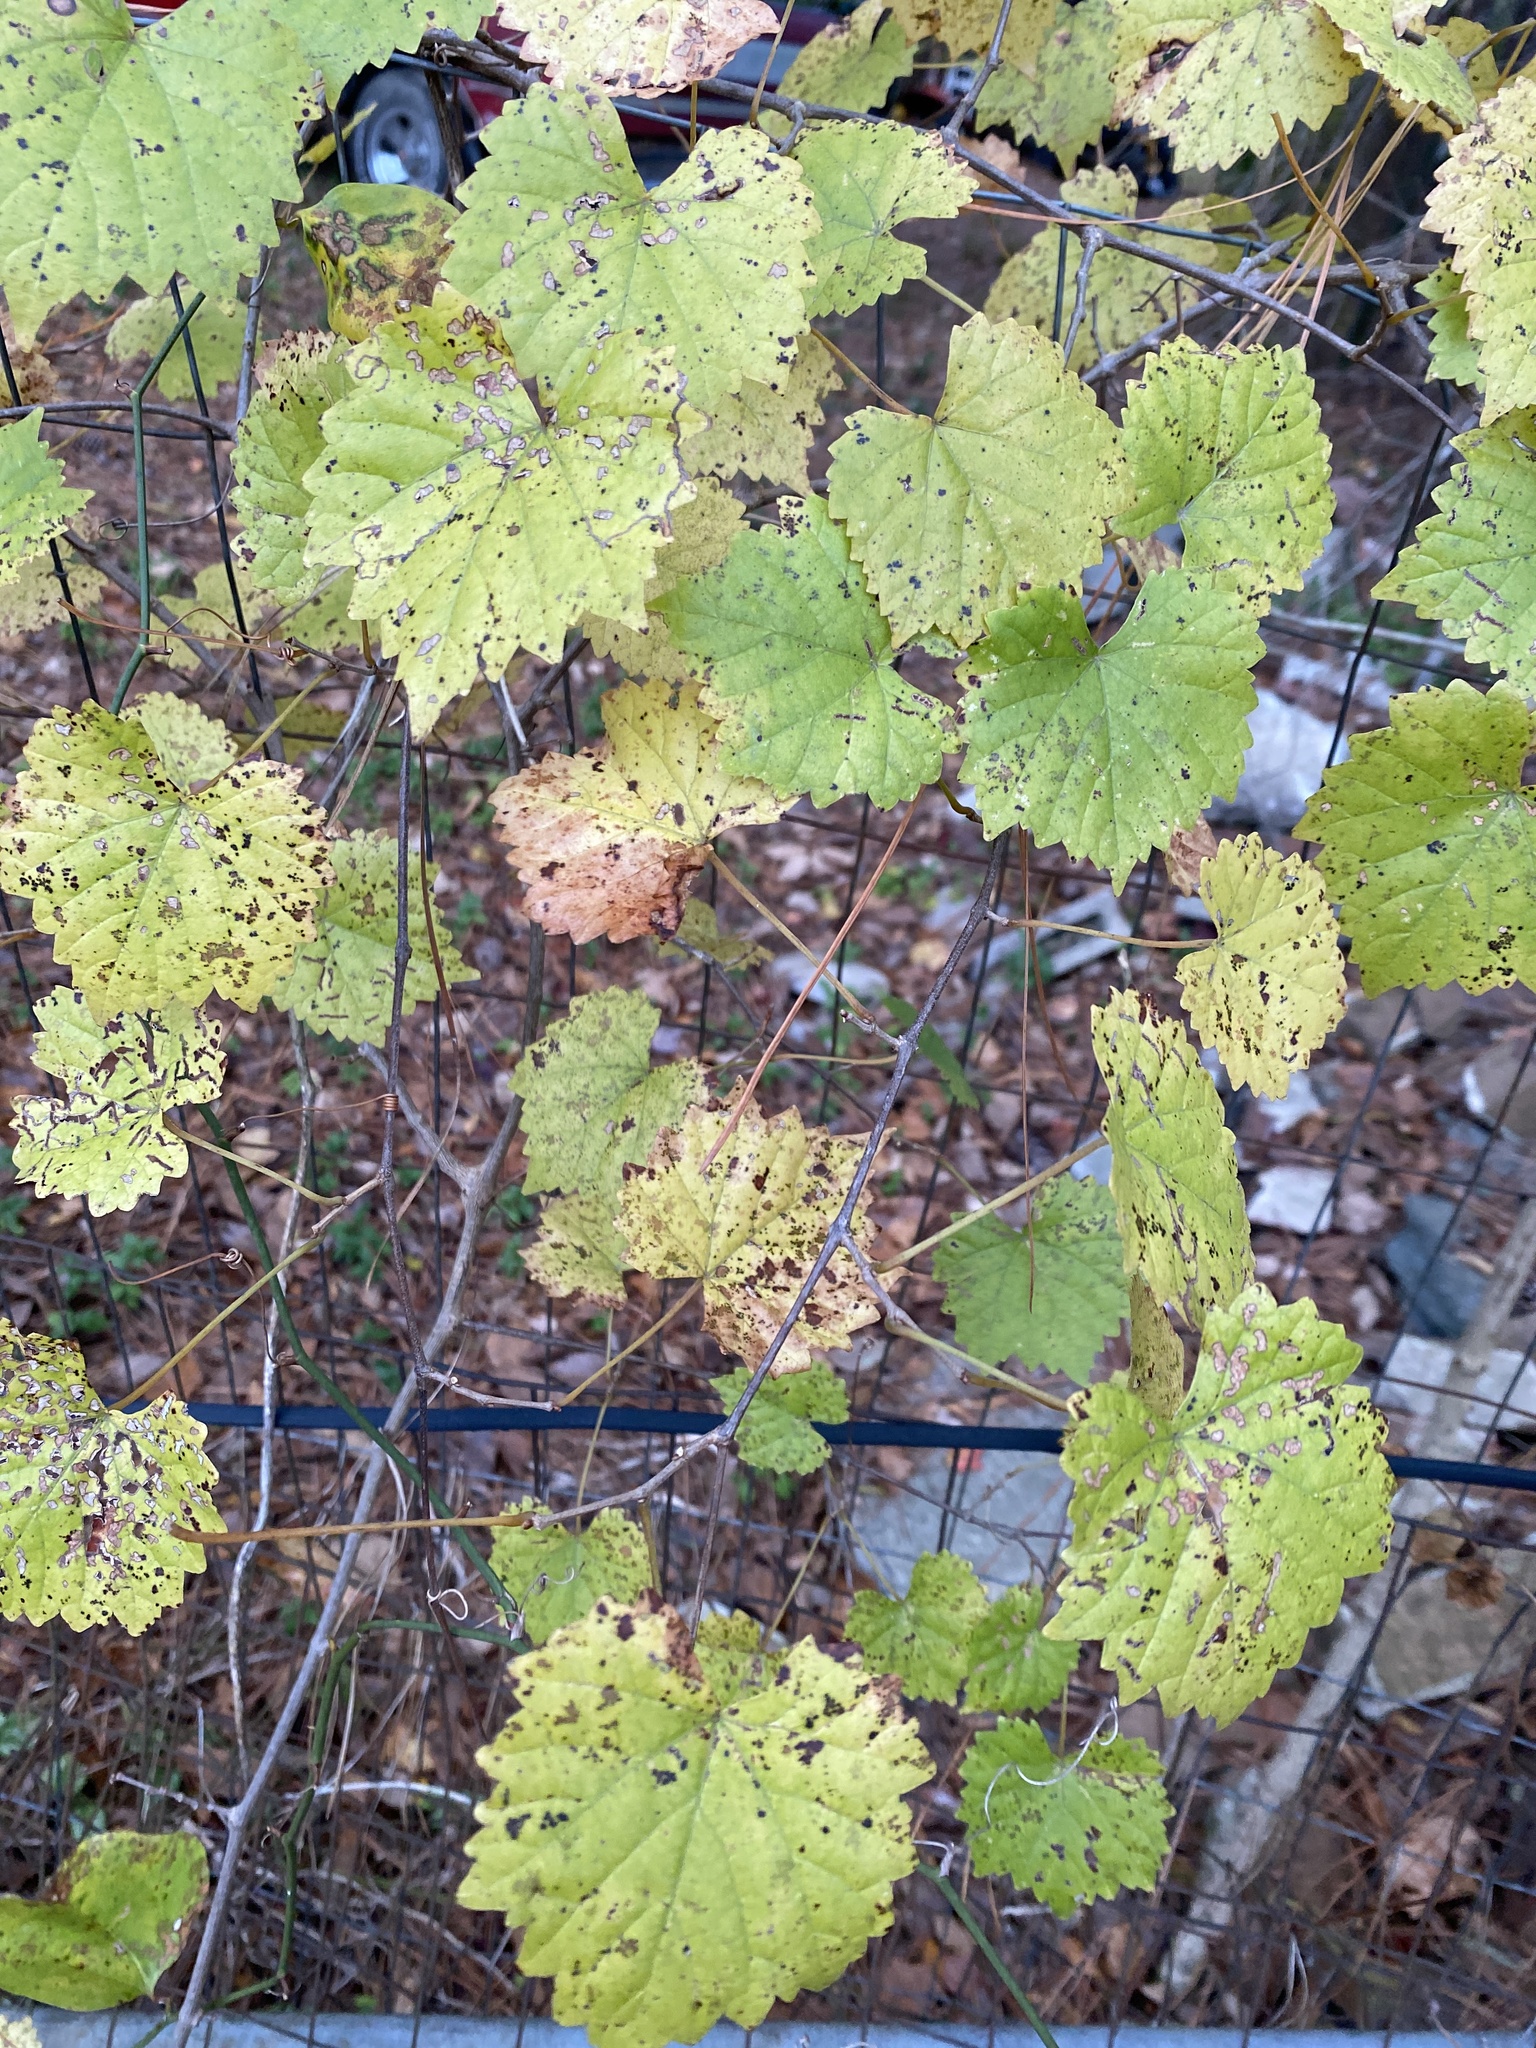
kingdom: Plantae
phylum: Tracheophyta
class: Magnoliopsida
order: Vitales
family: Vitaceae
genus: Vitis
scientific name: Vitis rotundifolia
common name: Muscadine grape
